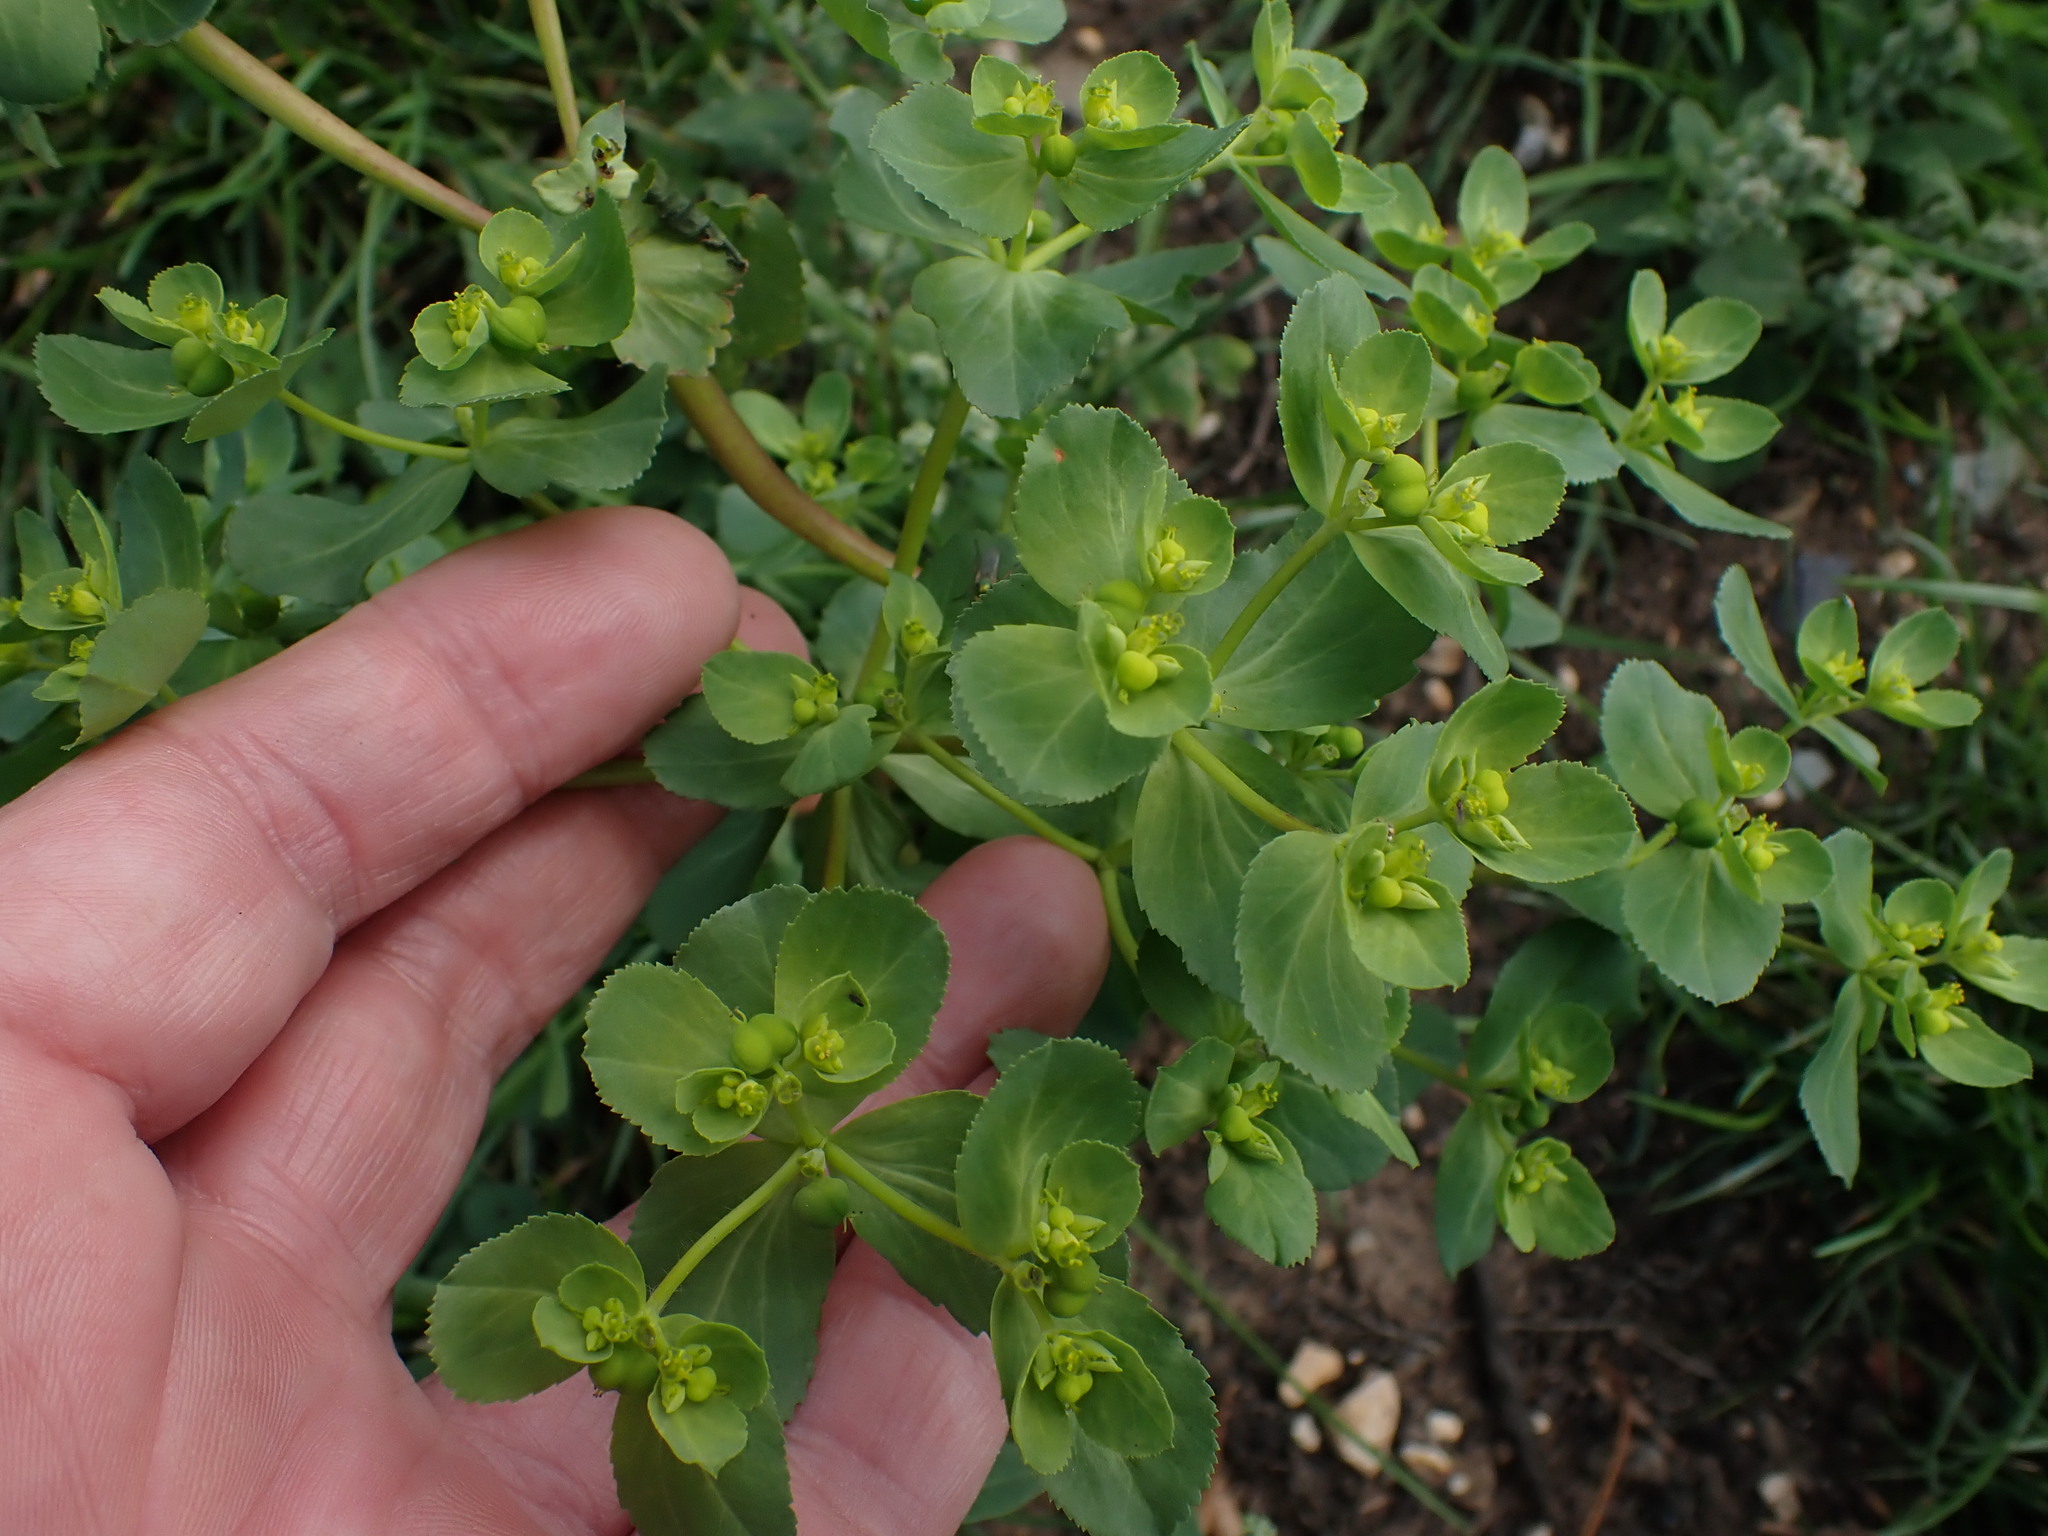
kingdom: Plantae
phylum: Tracheophyta
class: Magnoliopsida
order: Malpighiales
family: Euphorbiaceae
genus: Euphorbia
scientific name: Euphorbia helioscopia
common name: Sun spurge
